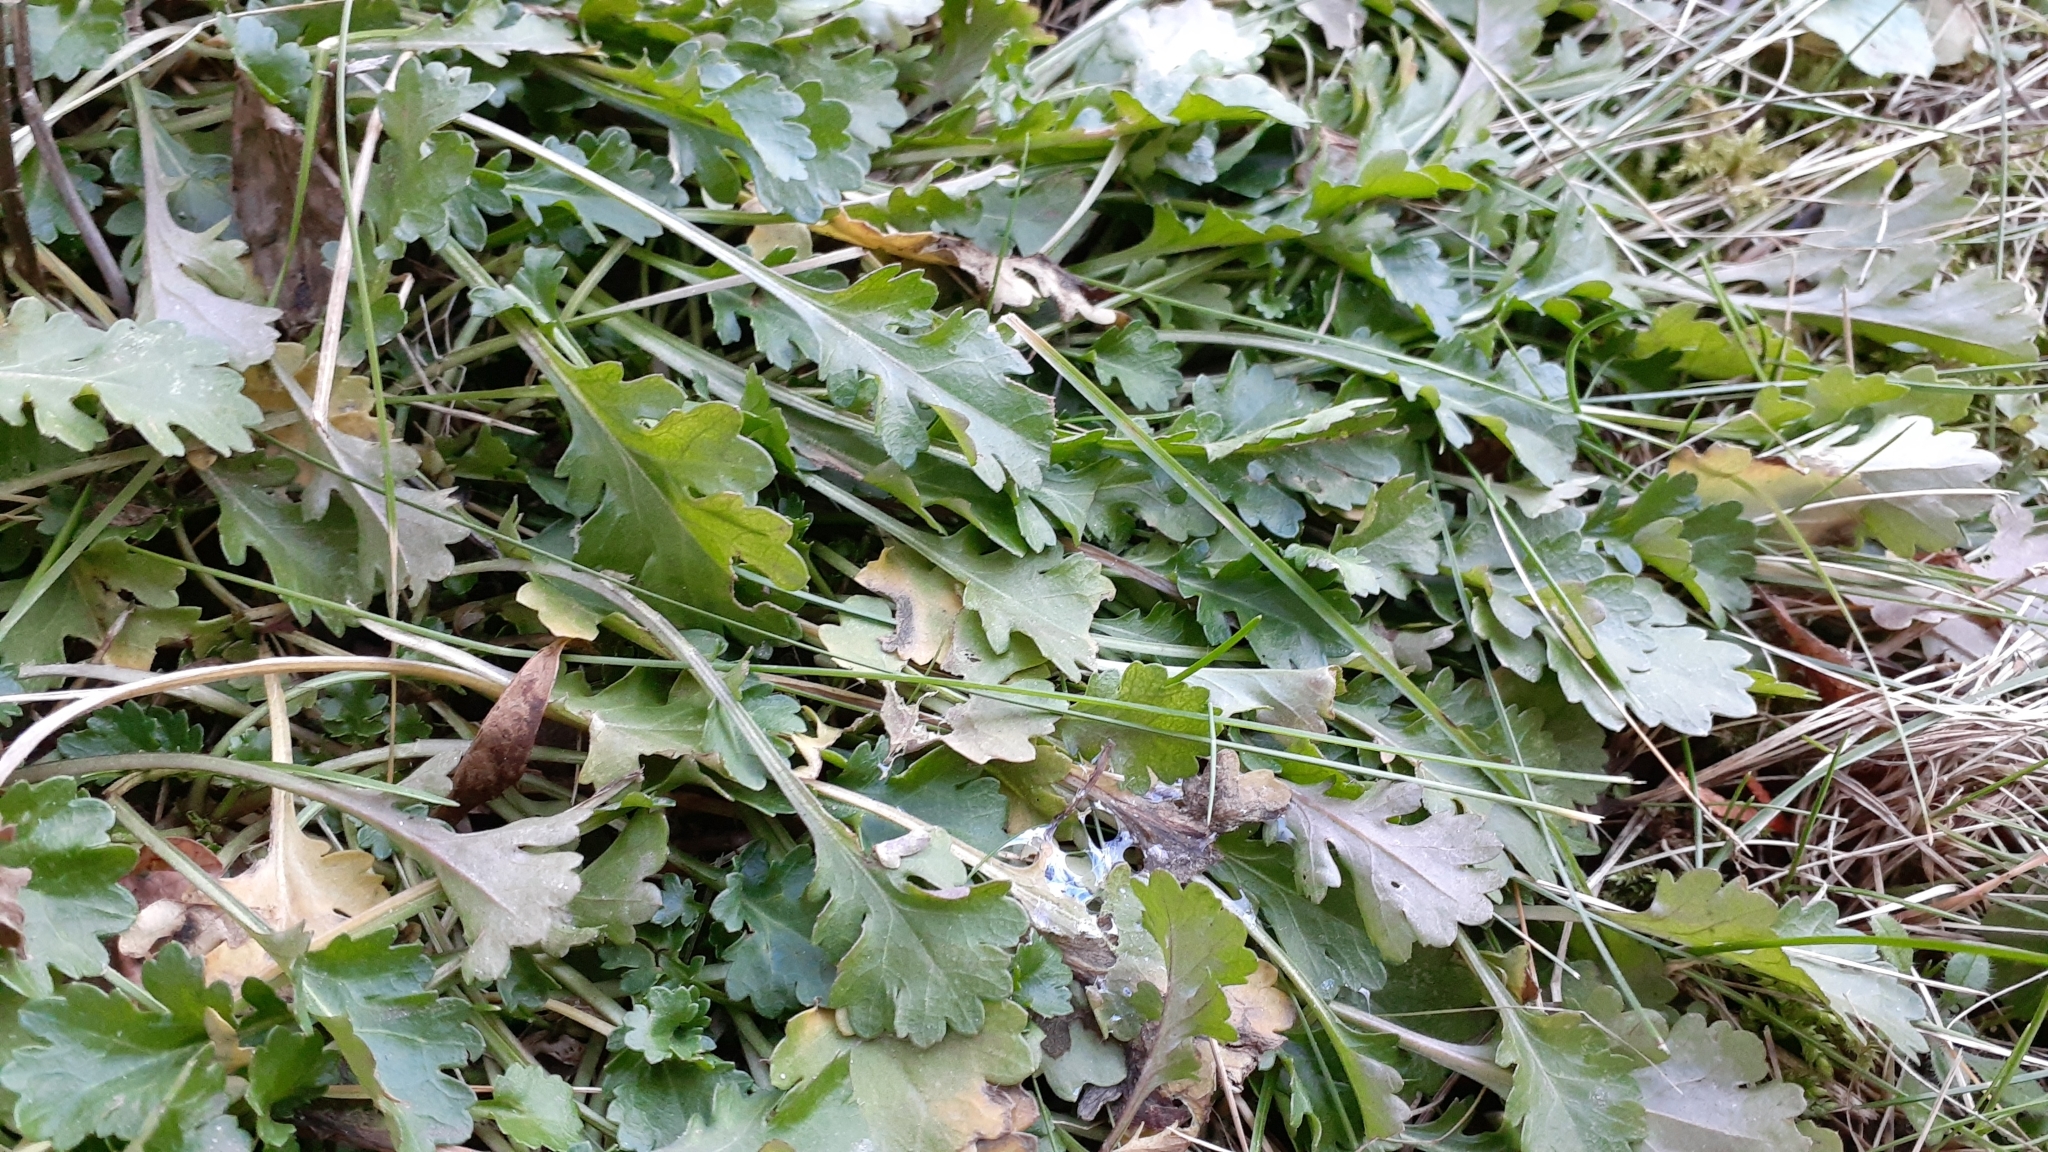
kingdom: Plantae
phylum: Tracheophyta
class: Magnoliopsida
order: Asterales
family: Asteraceae
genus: Leucanthemum
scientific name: Leucanthemum vulgare
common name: Oxeye daisy
